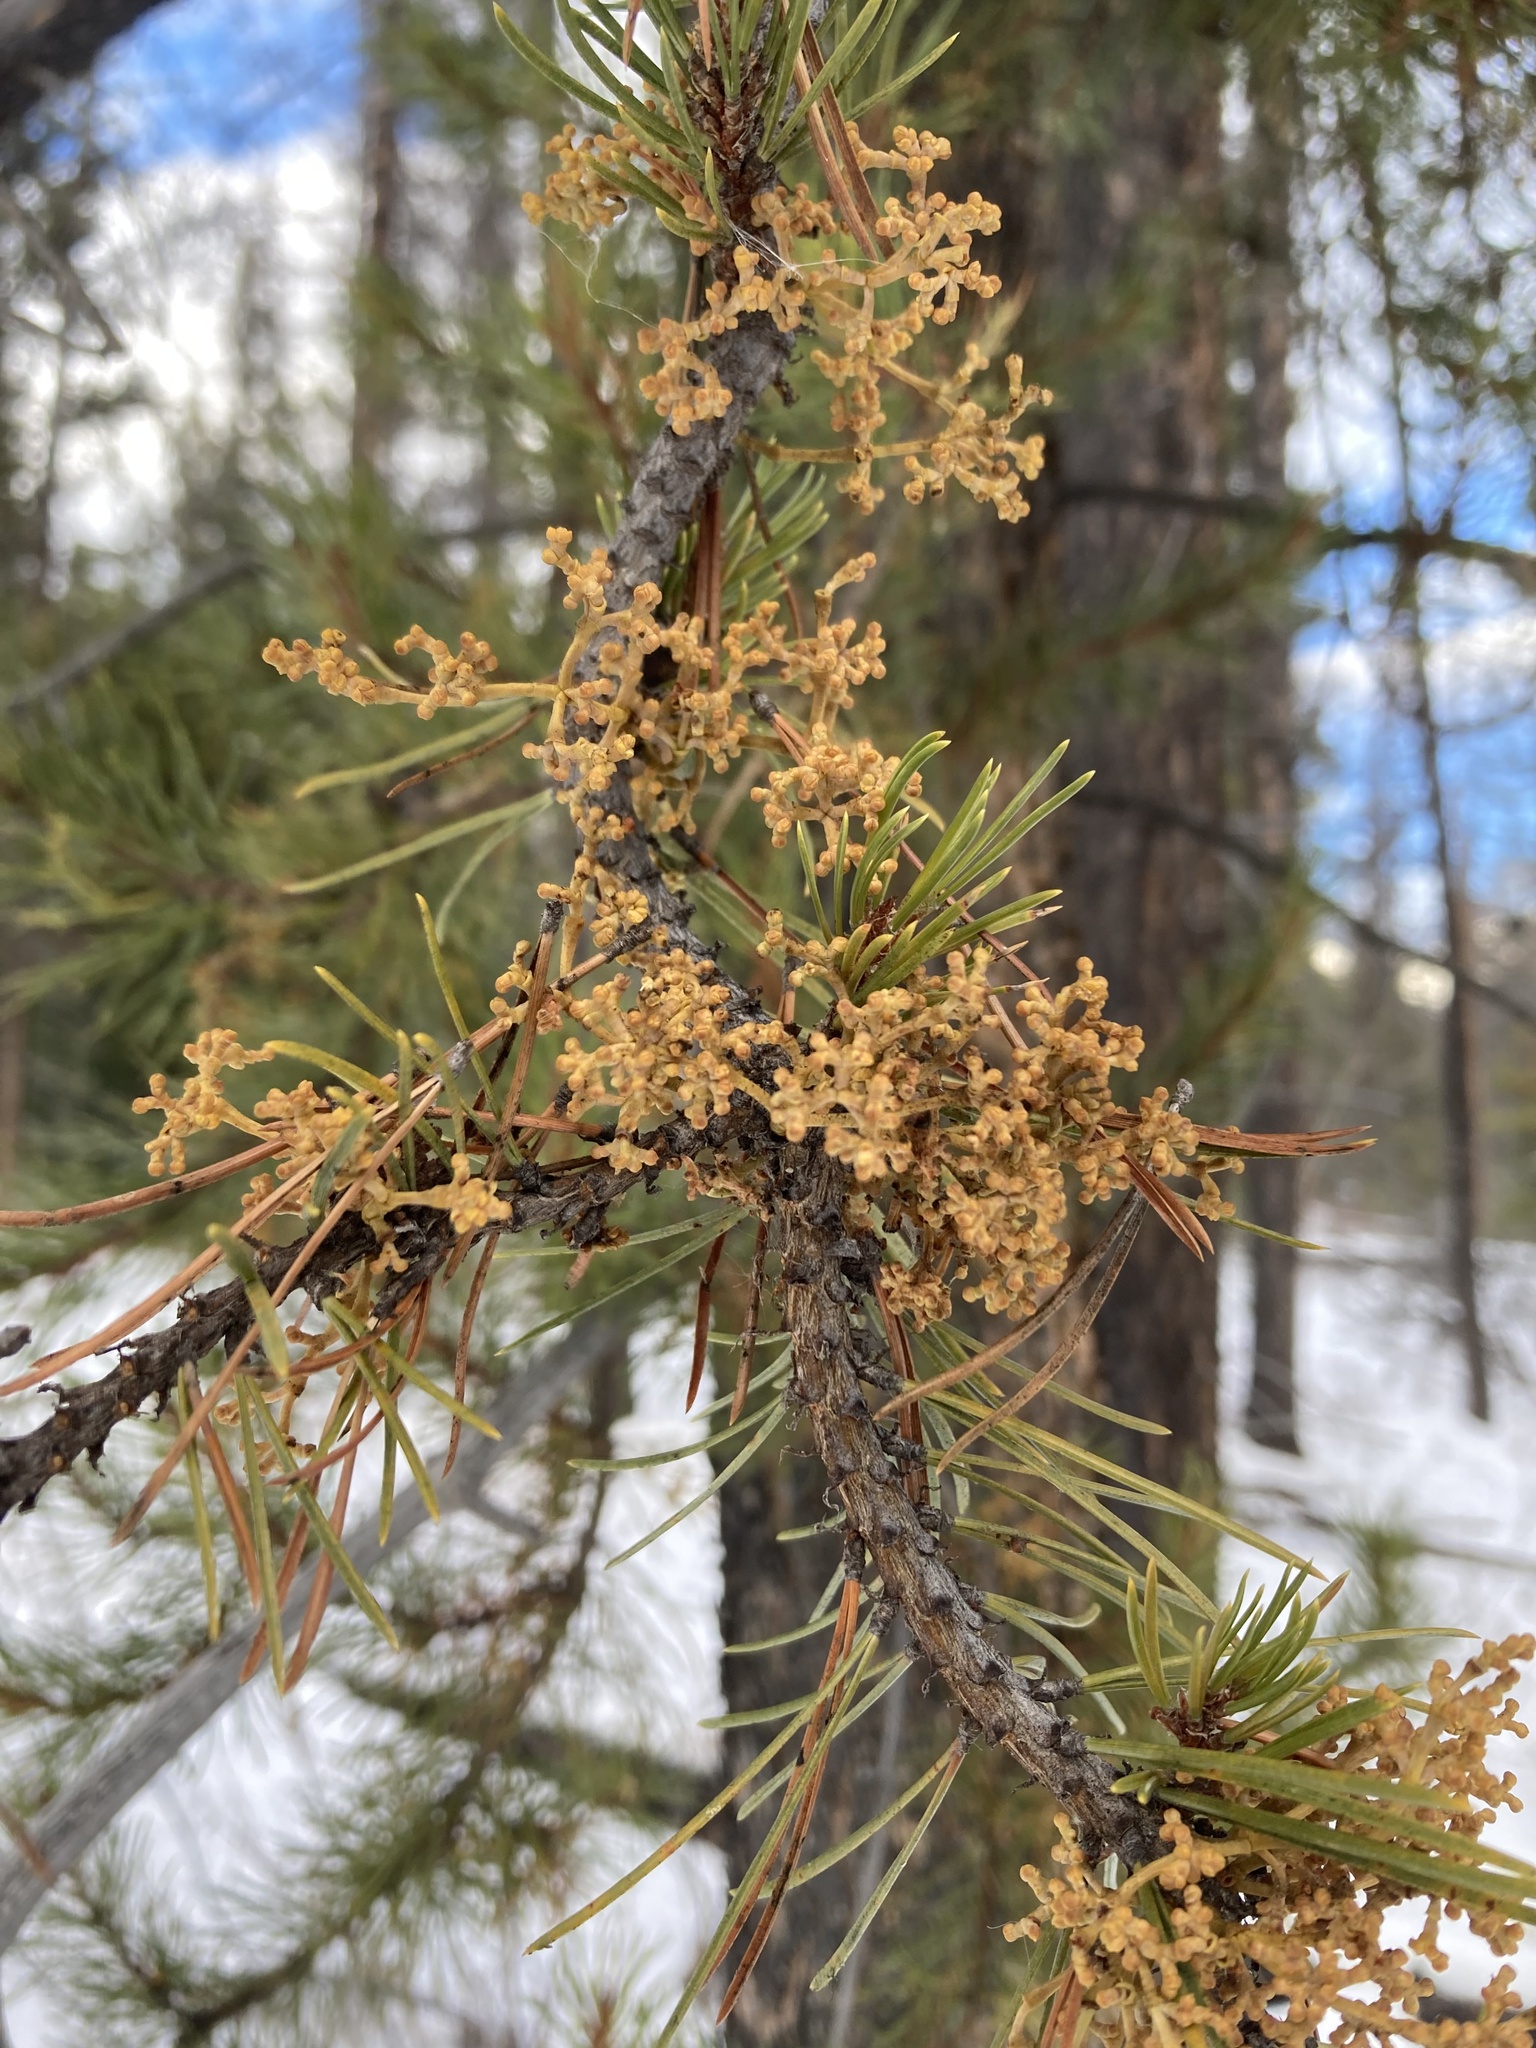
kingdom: Plantae
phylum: Tracheophyta
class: Magnoliopsida
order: Santalales
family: Viscaceae
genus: Arceuthobium
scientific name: Arceuthobium americanum
